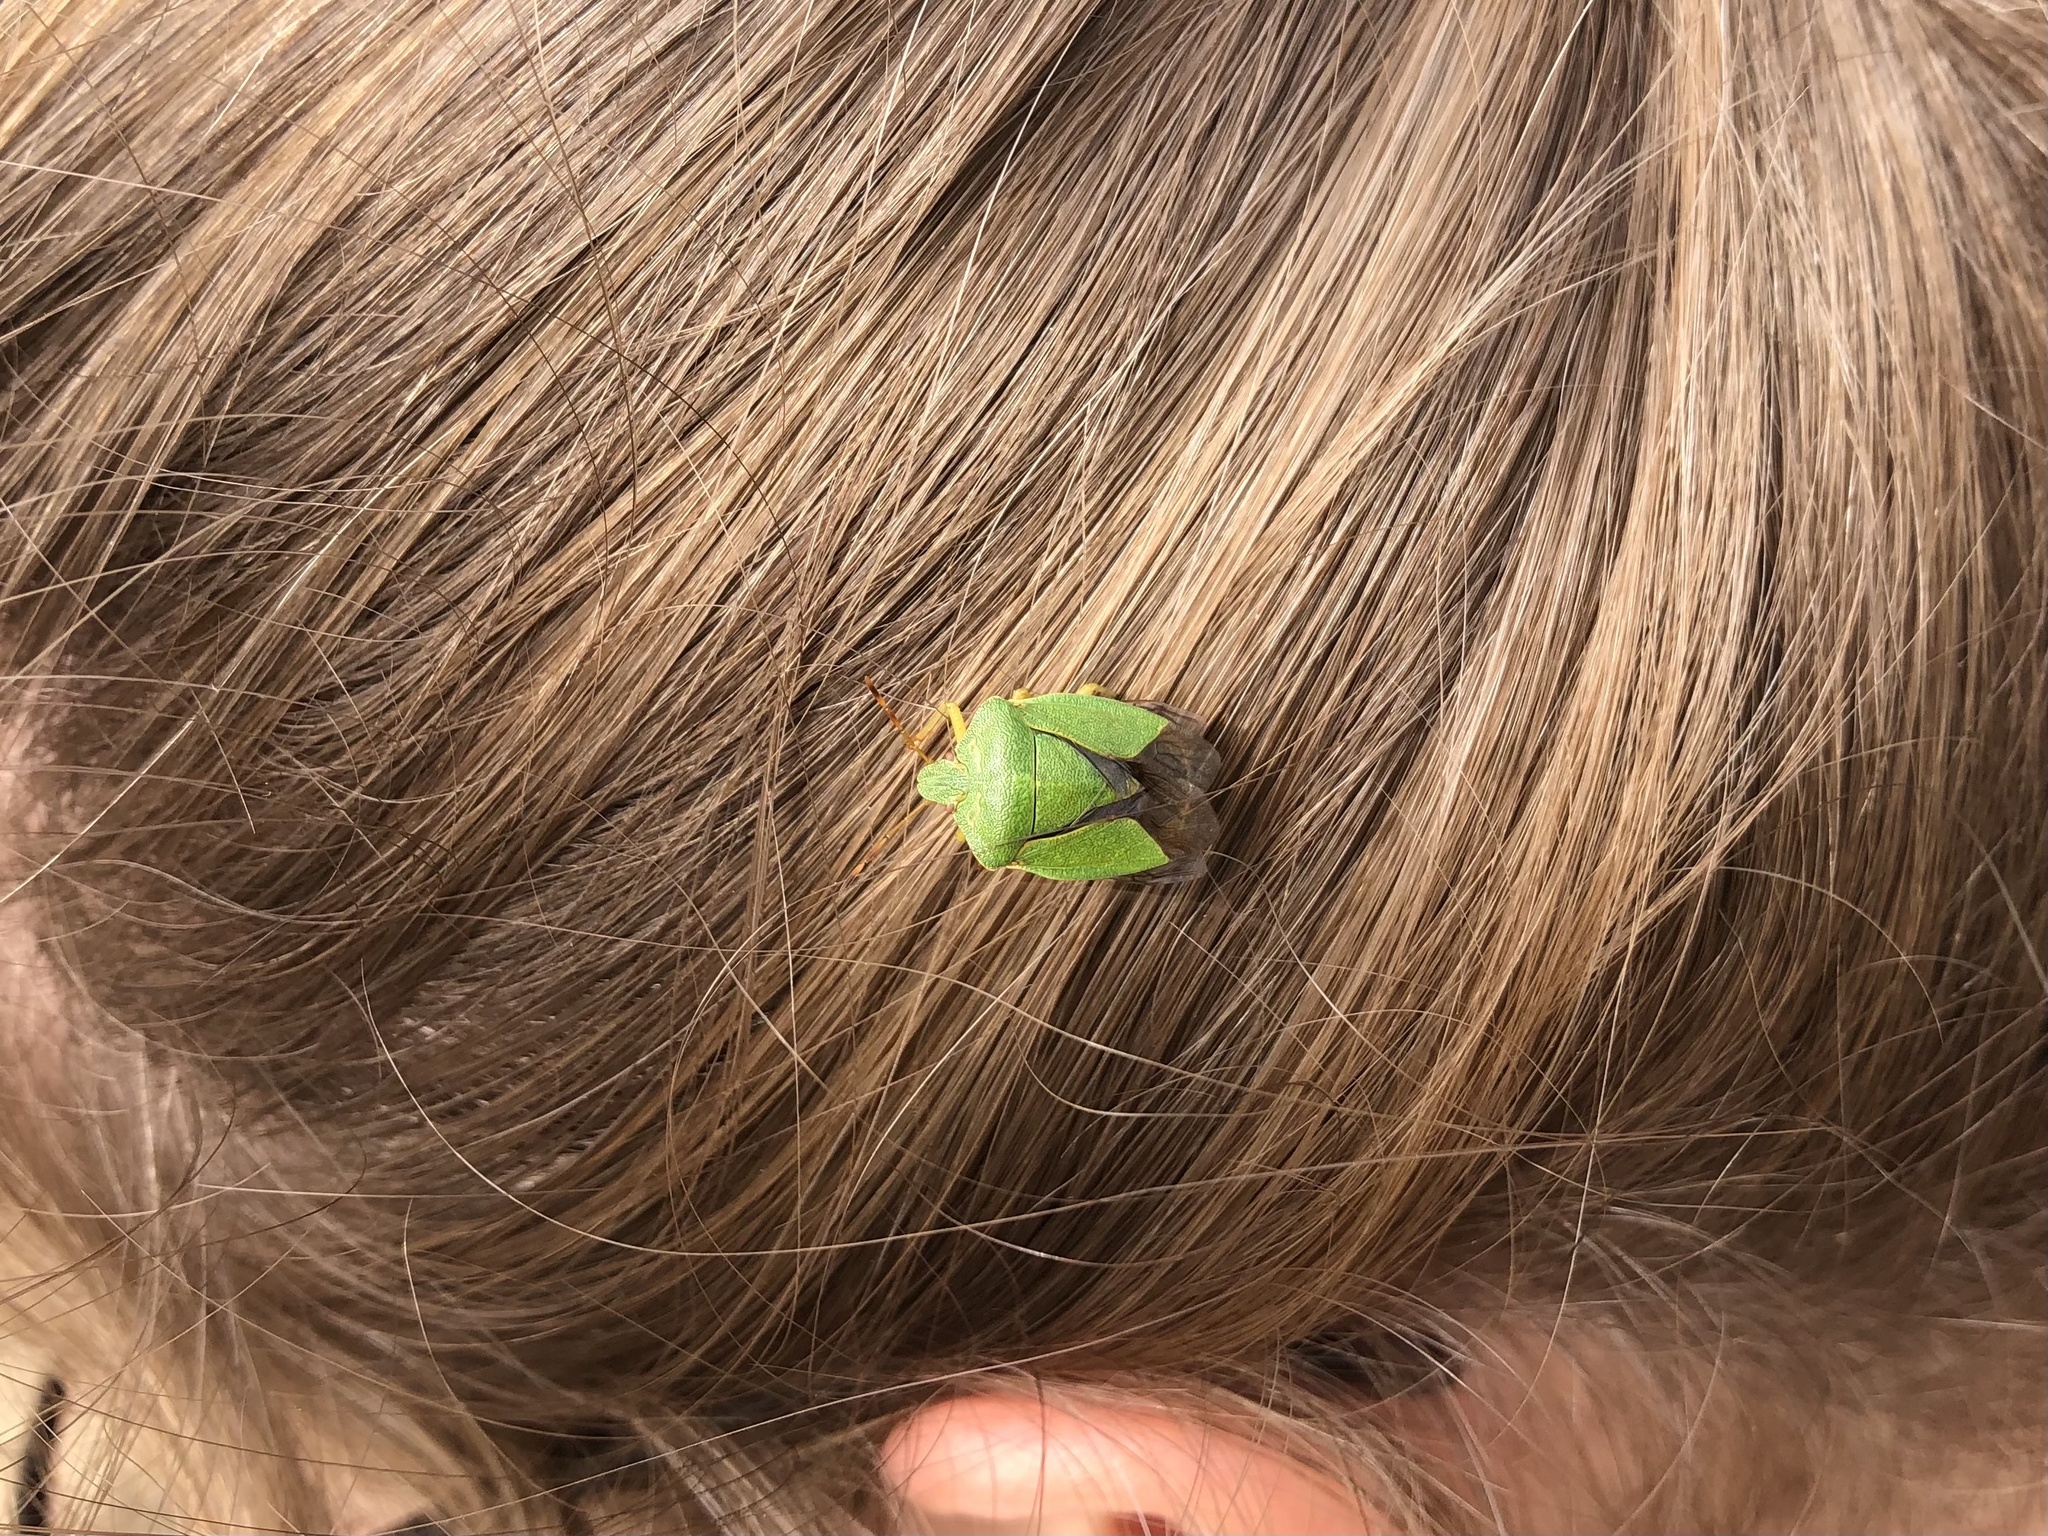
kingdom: Animalia
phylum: Arthropoda
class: Insecta
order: Hemiptera
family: Pentatomidae
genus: Palomena
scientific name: Palomena prasina
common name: Green shieldbug
